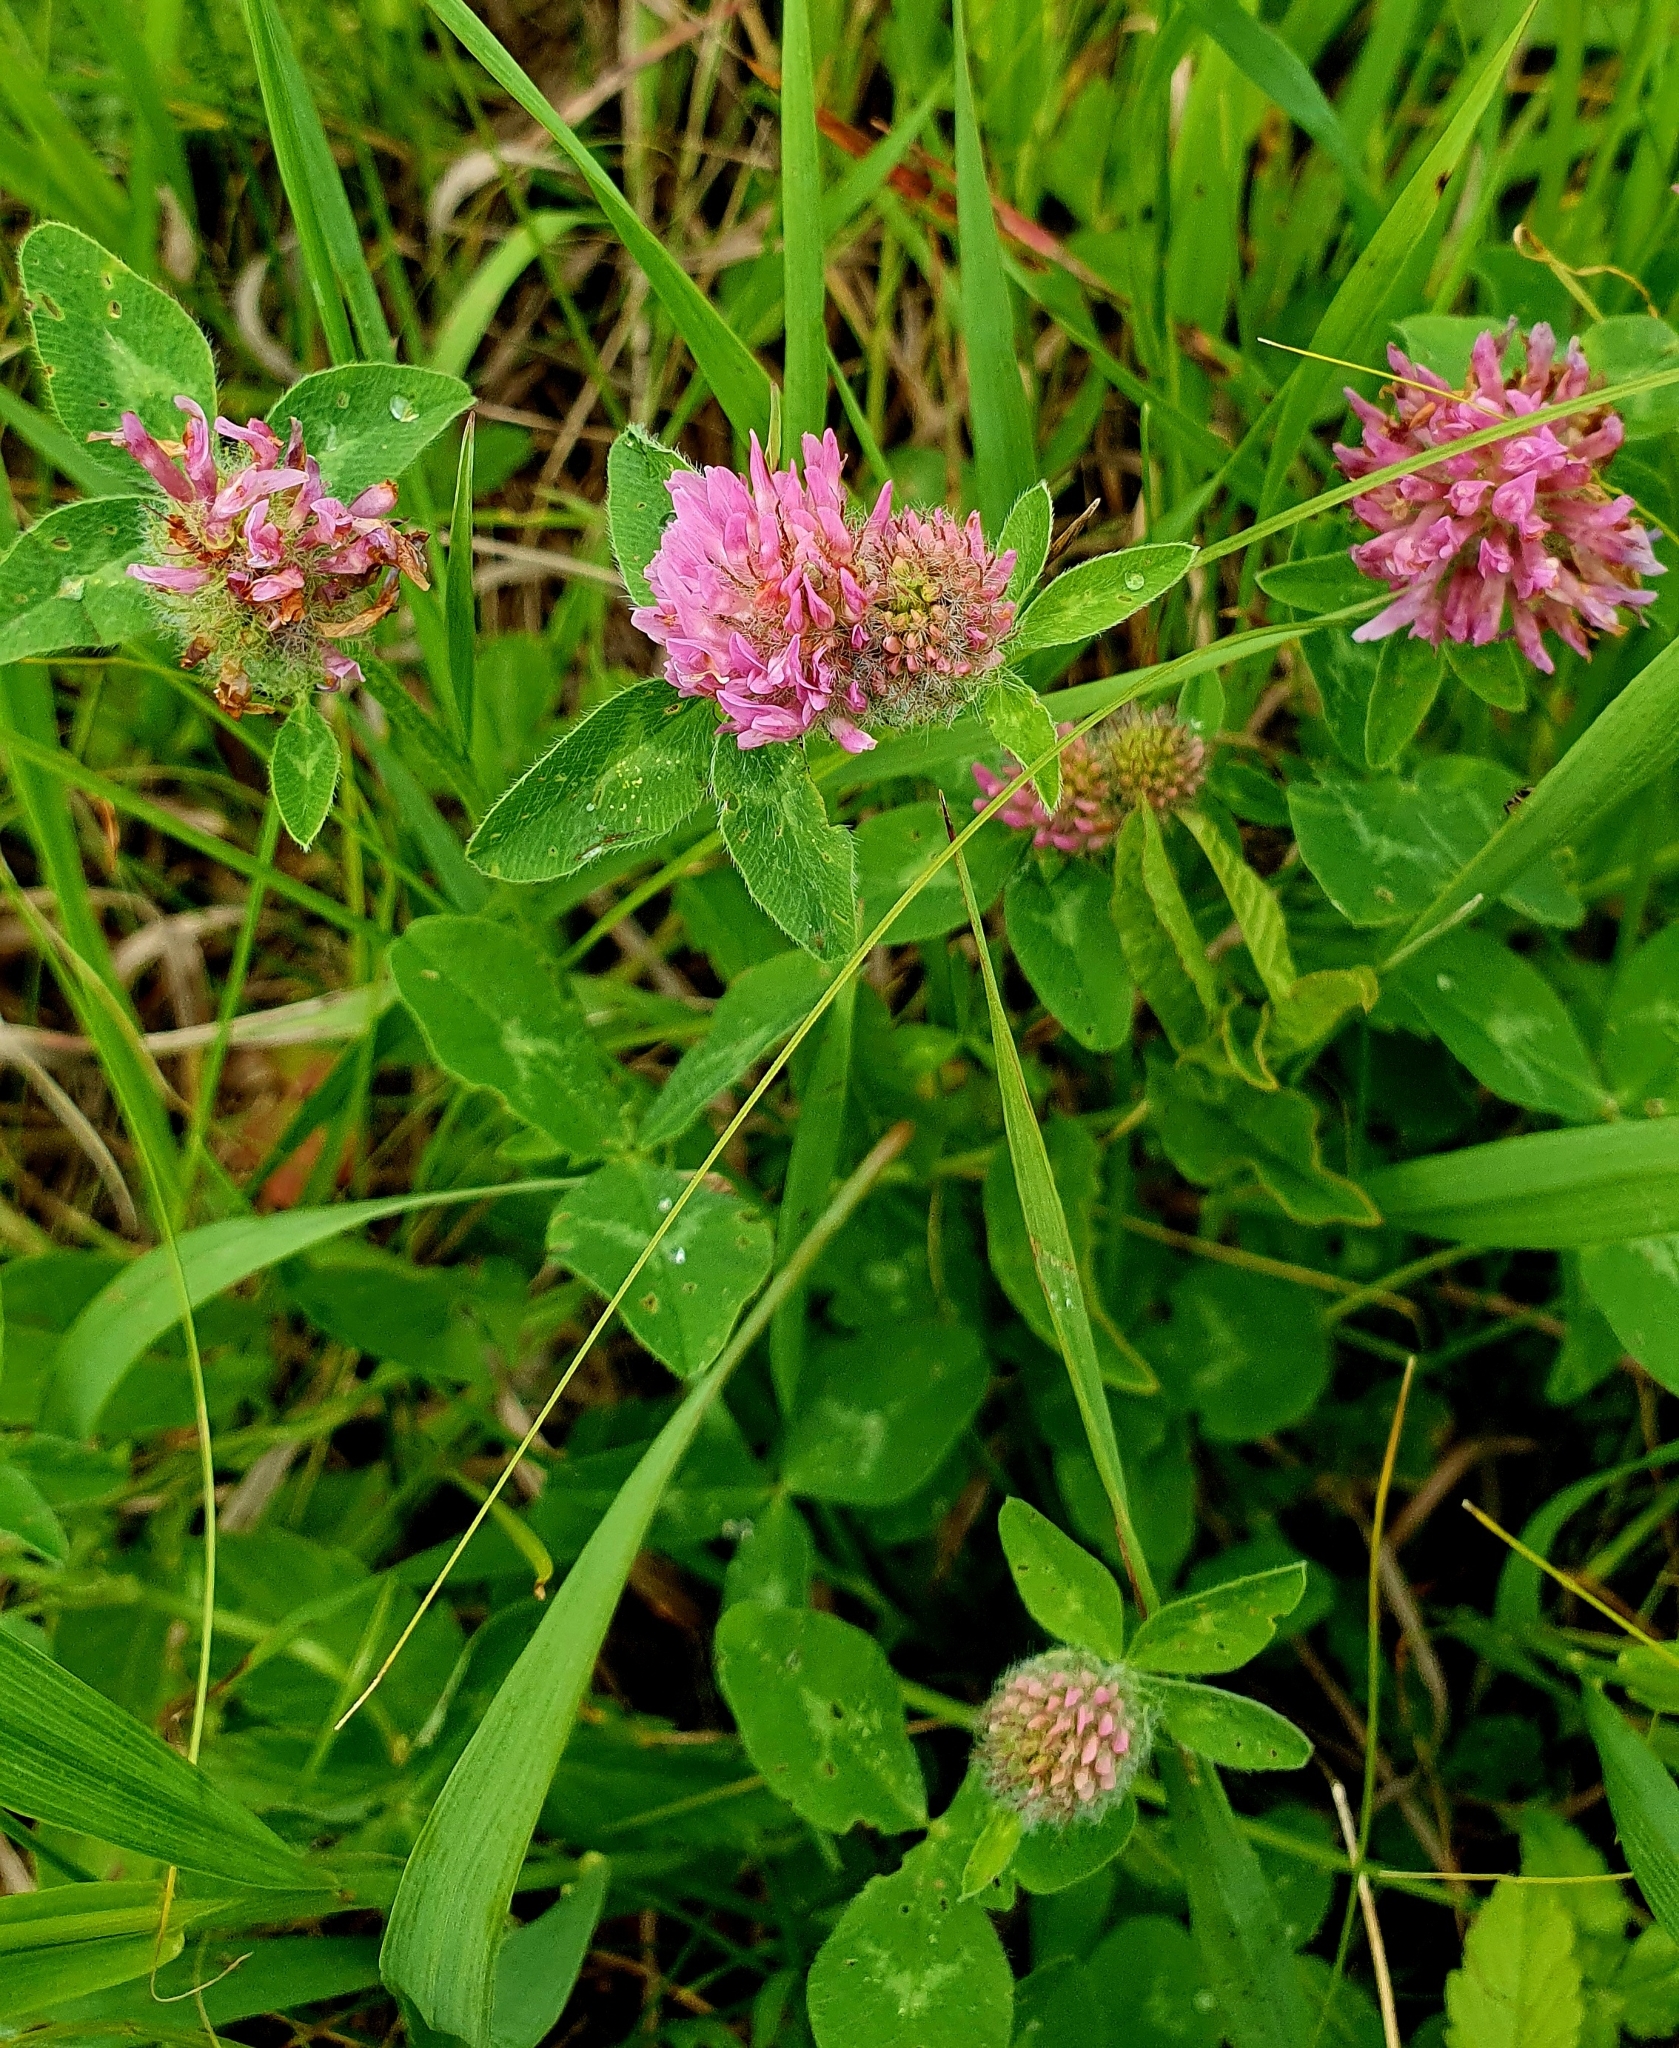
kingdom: Plantae
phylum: Tracheophyta
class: Magnoliopsida
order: Fabales
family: Fabaceae
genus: Trifolium
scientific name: Trifolium pratense
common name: Red clover
